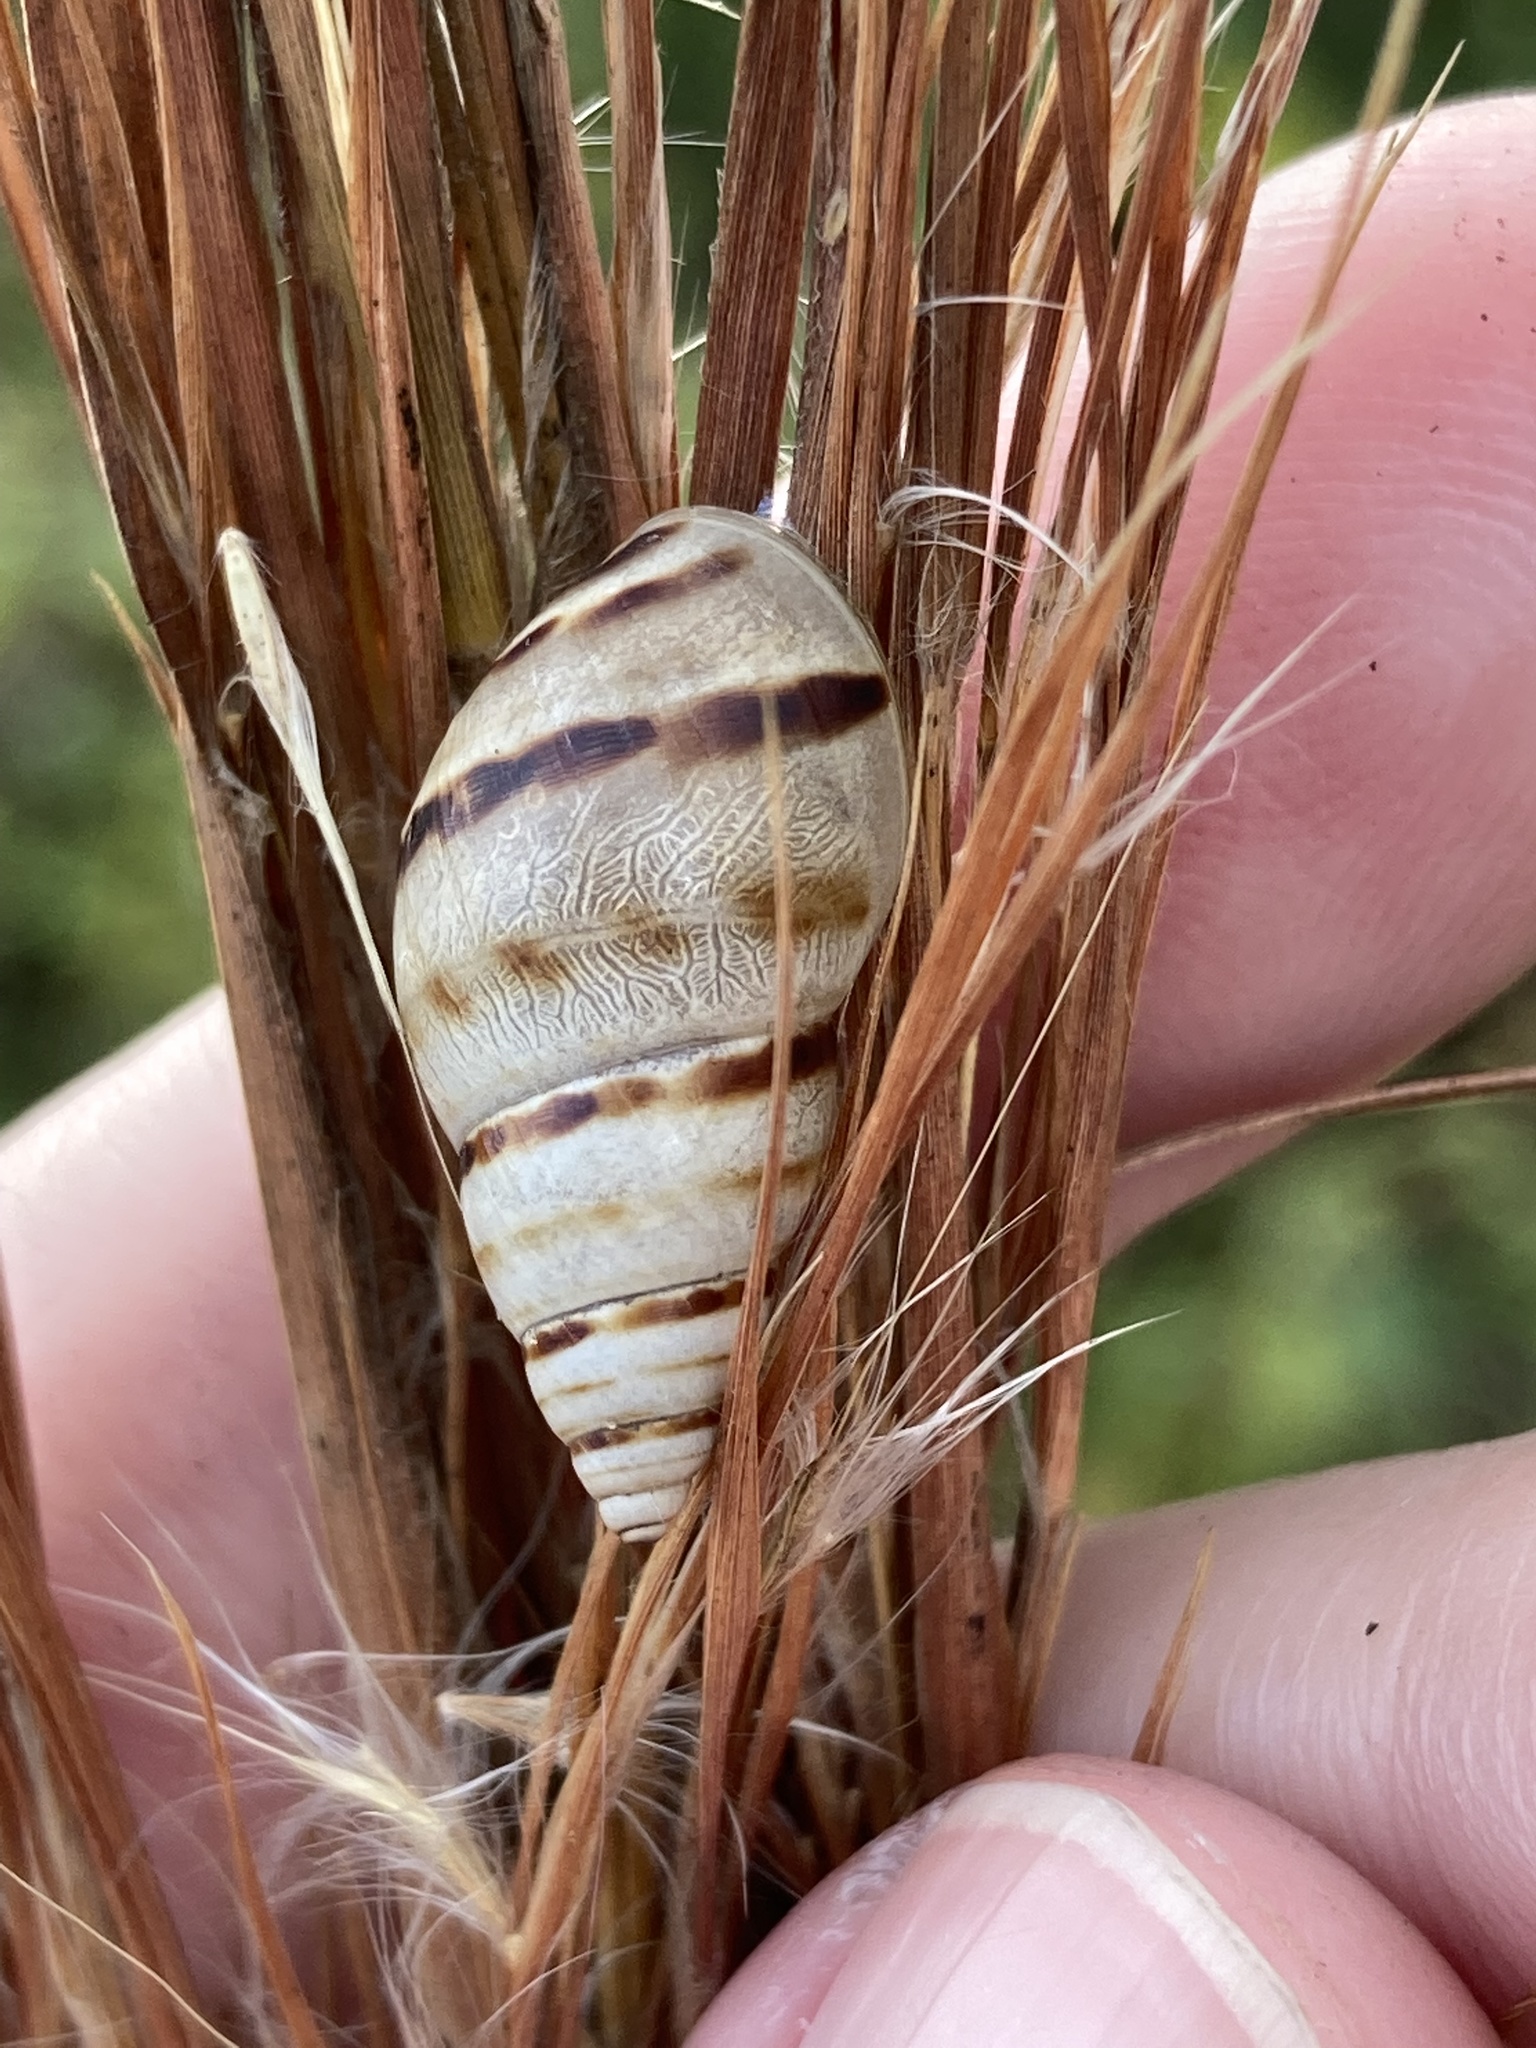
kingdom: Animalia
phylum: Mollusca
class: Gastropoda
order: Stylommatophora
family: Bulimulidae
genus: Drymaeus
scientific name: Drymaeus
